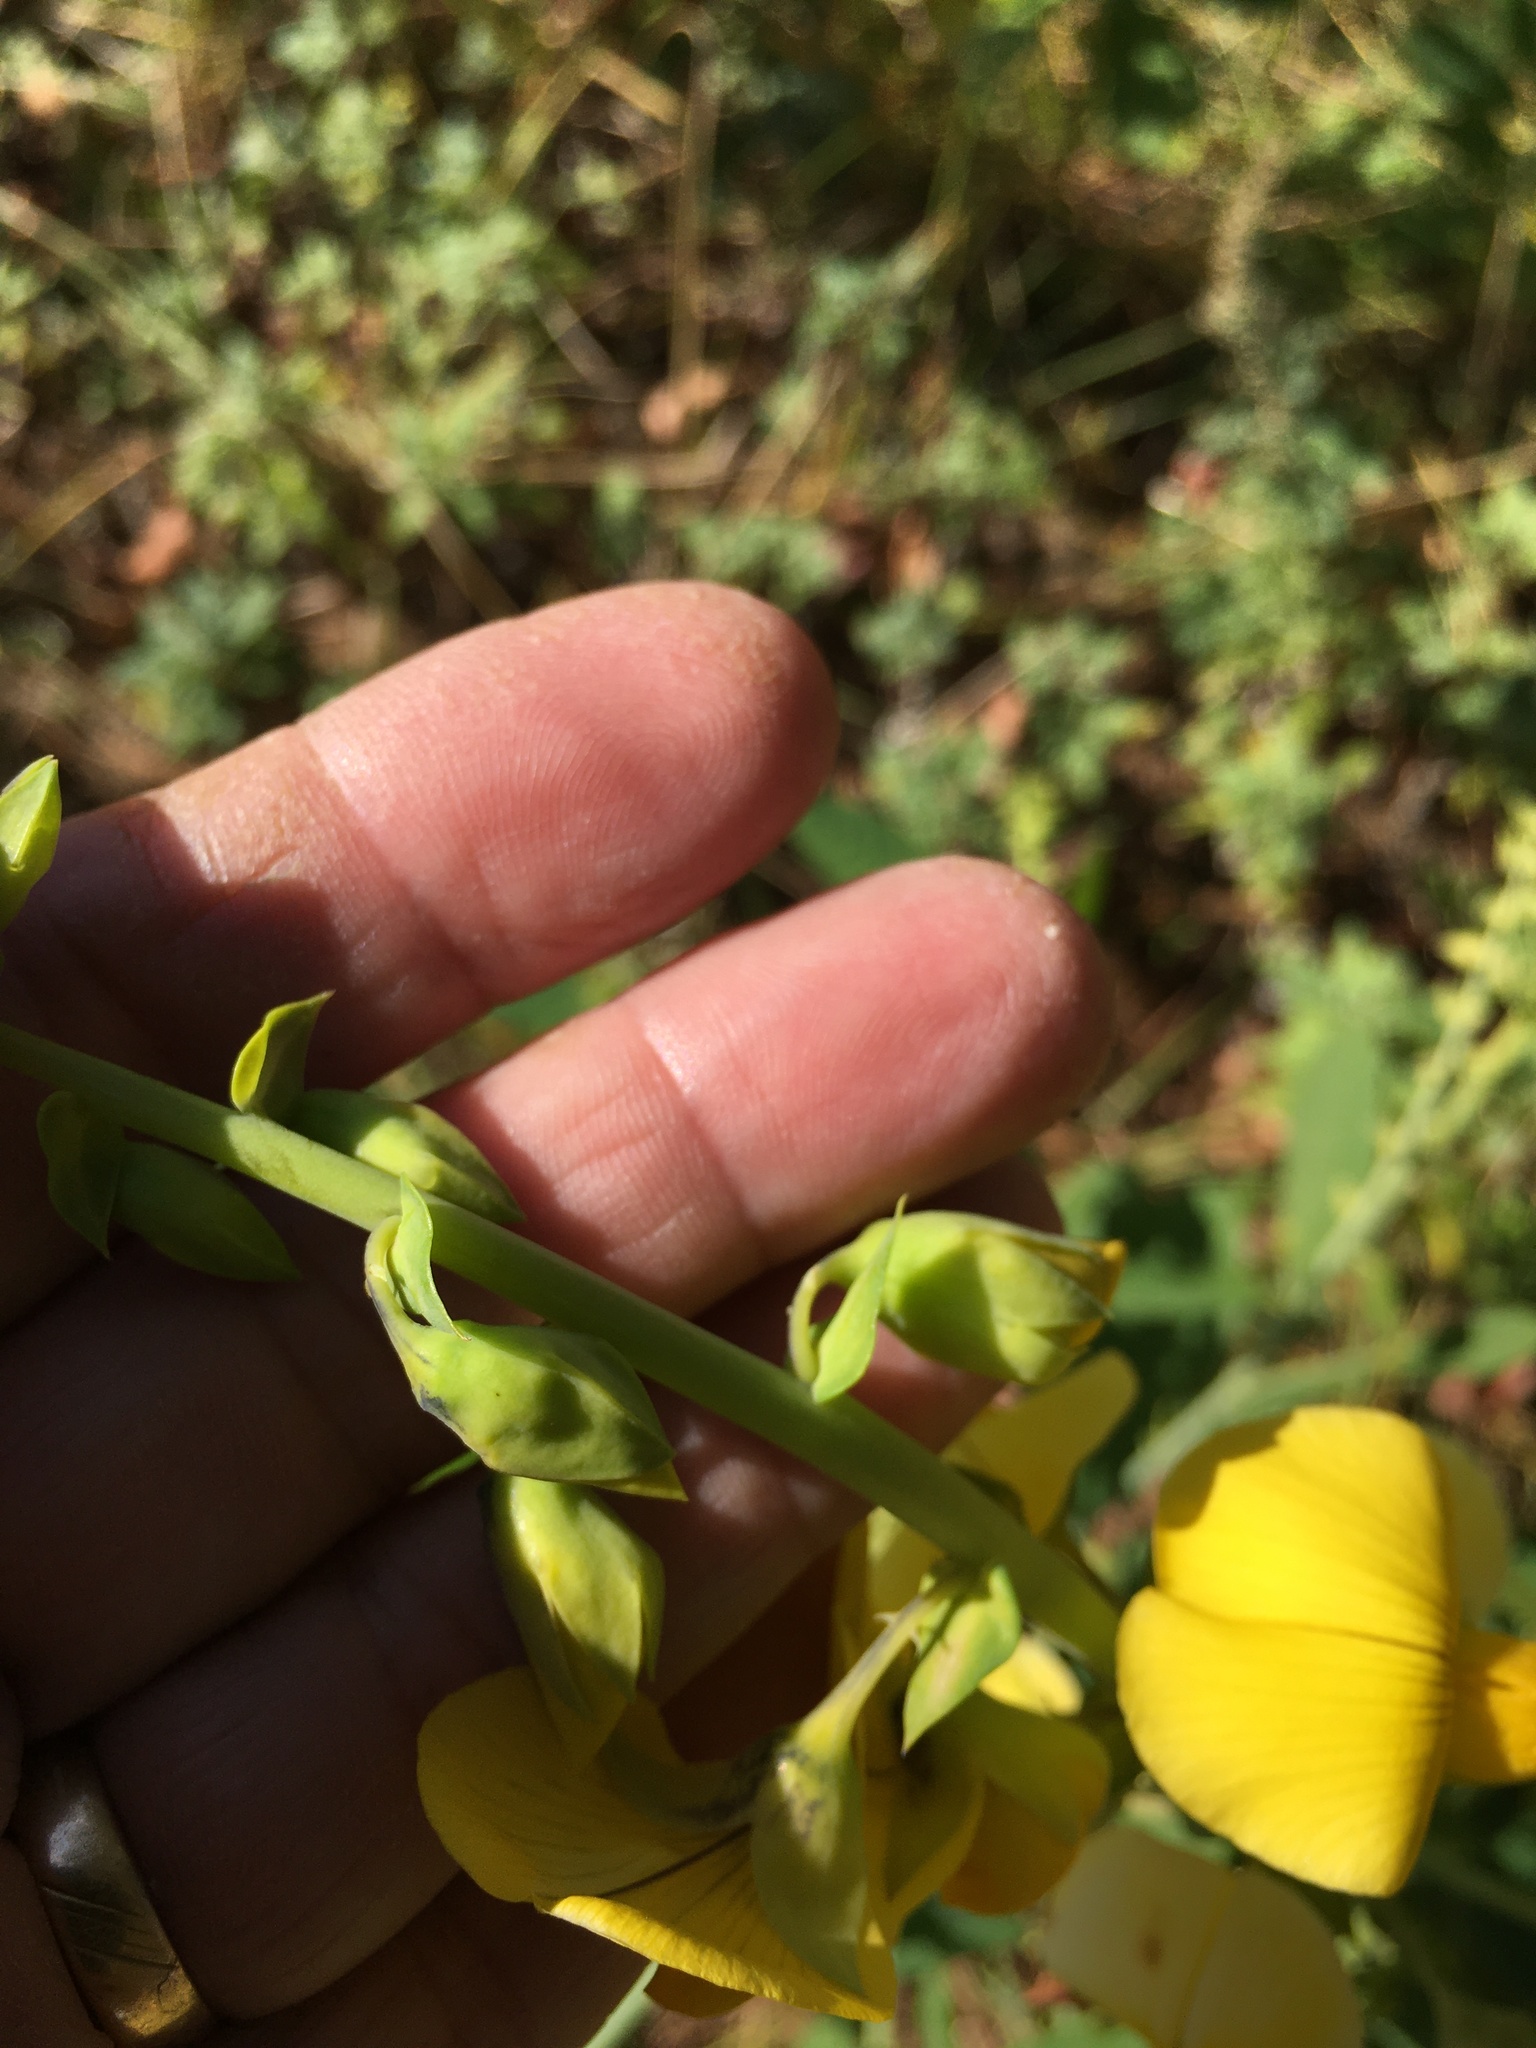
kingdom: Plantae
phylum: Tracheophyta
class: Magnoliopsida
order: Fabales
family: Fabaceae
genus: Crotalaria
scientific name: Crotalaria spectabilis
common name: Showy rattlebox
